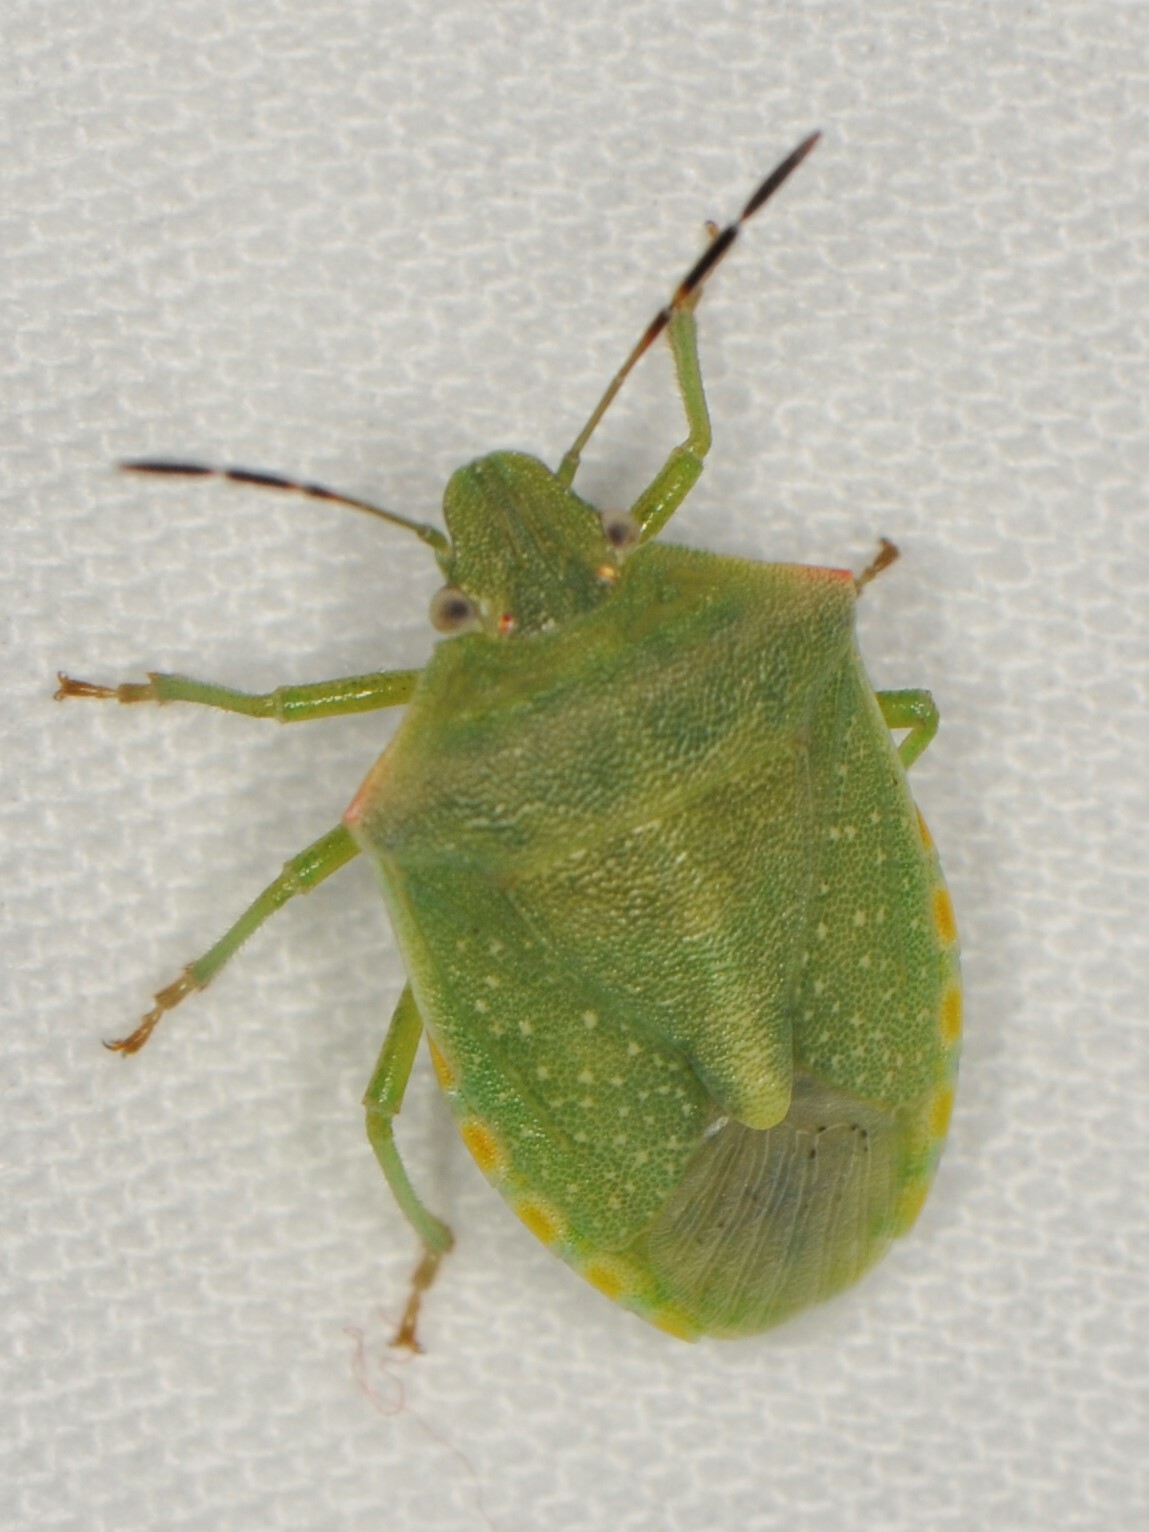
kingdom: Animalia
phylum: Arthropoda
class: Insecta
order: Hemiptera
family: Pentatomidae
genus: Thyanta
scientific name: Thyanta accerra
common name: Stink bug
